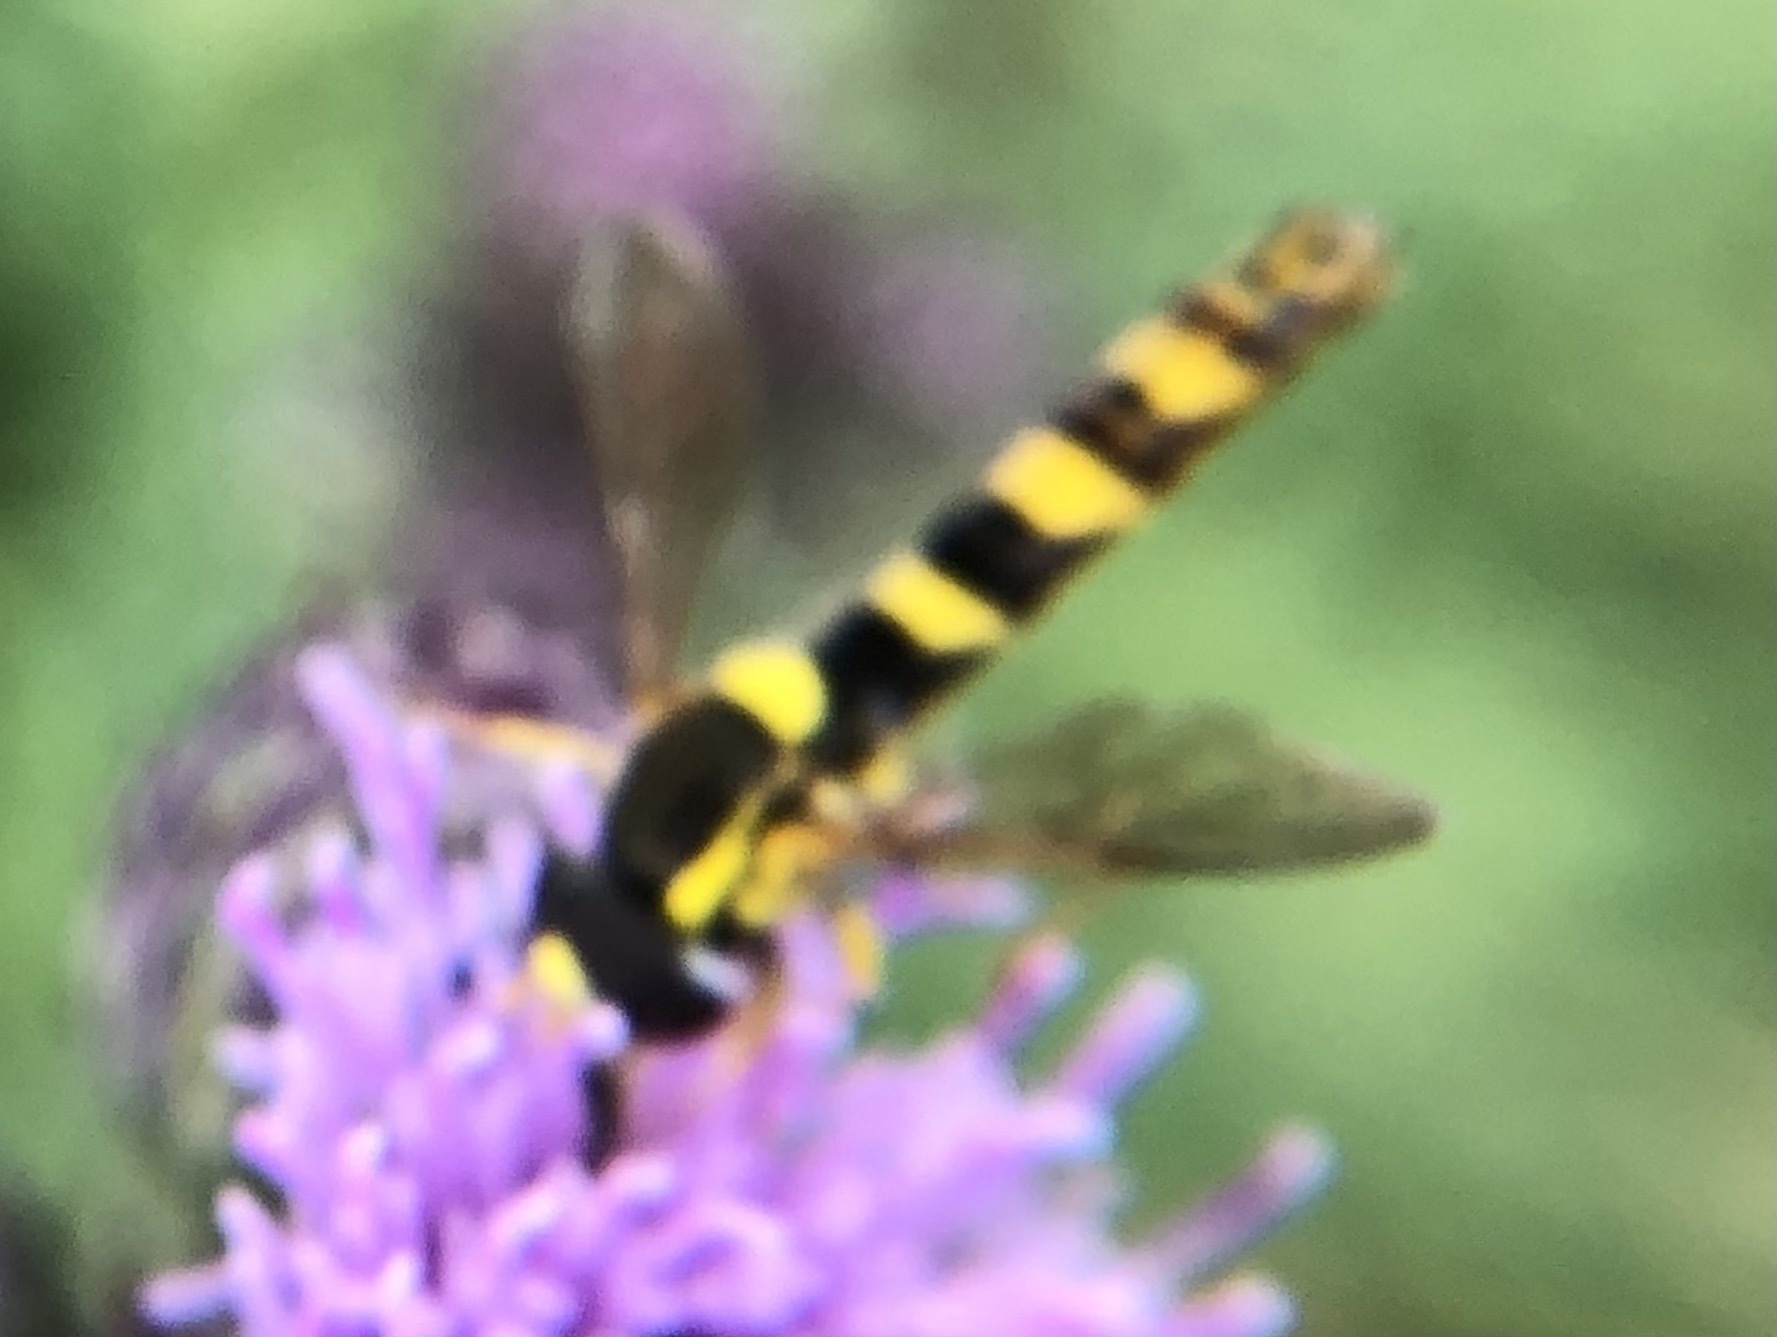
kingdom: Animalia
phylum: Arthropoda
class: Insecta
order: Diptera
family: Syrphidae
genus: Sphaerophoria
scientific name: Sphaerophoria scripta
